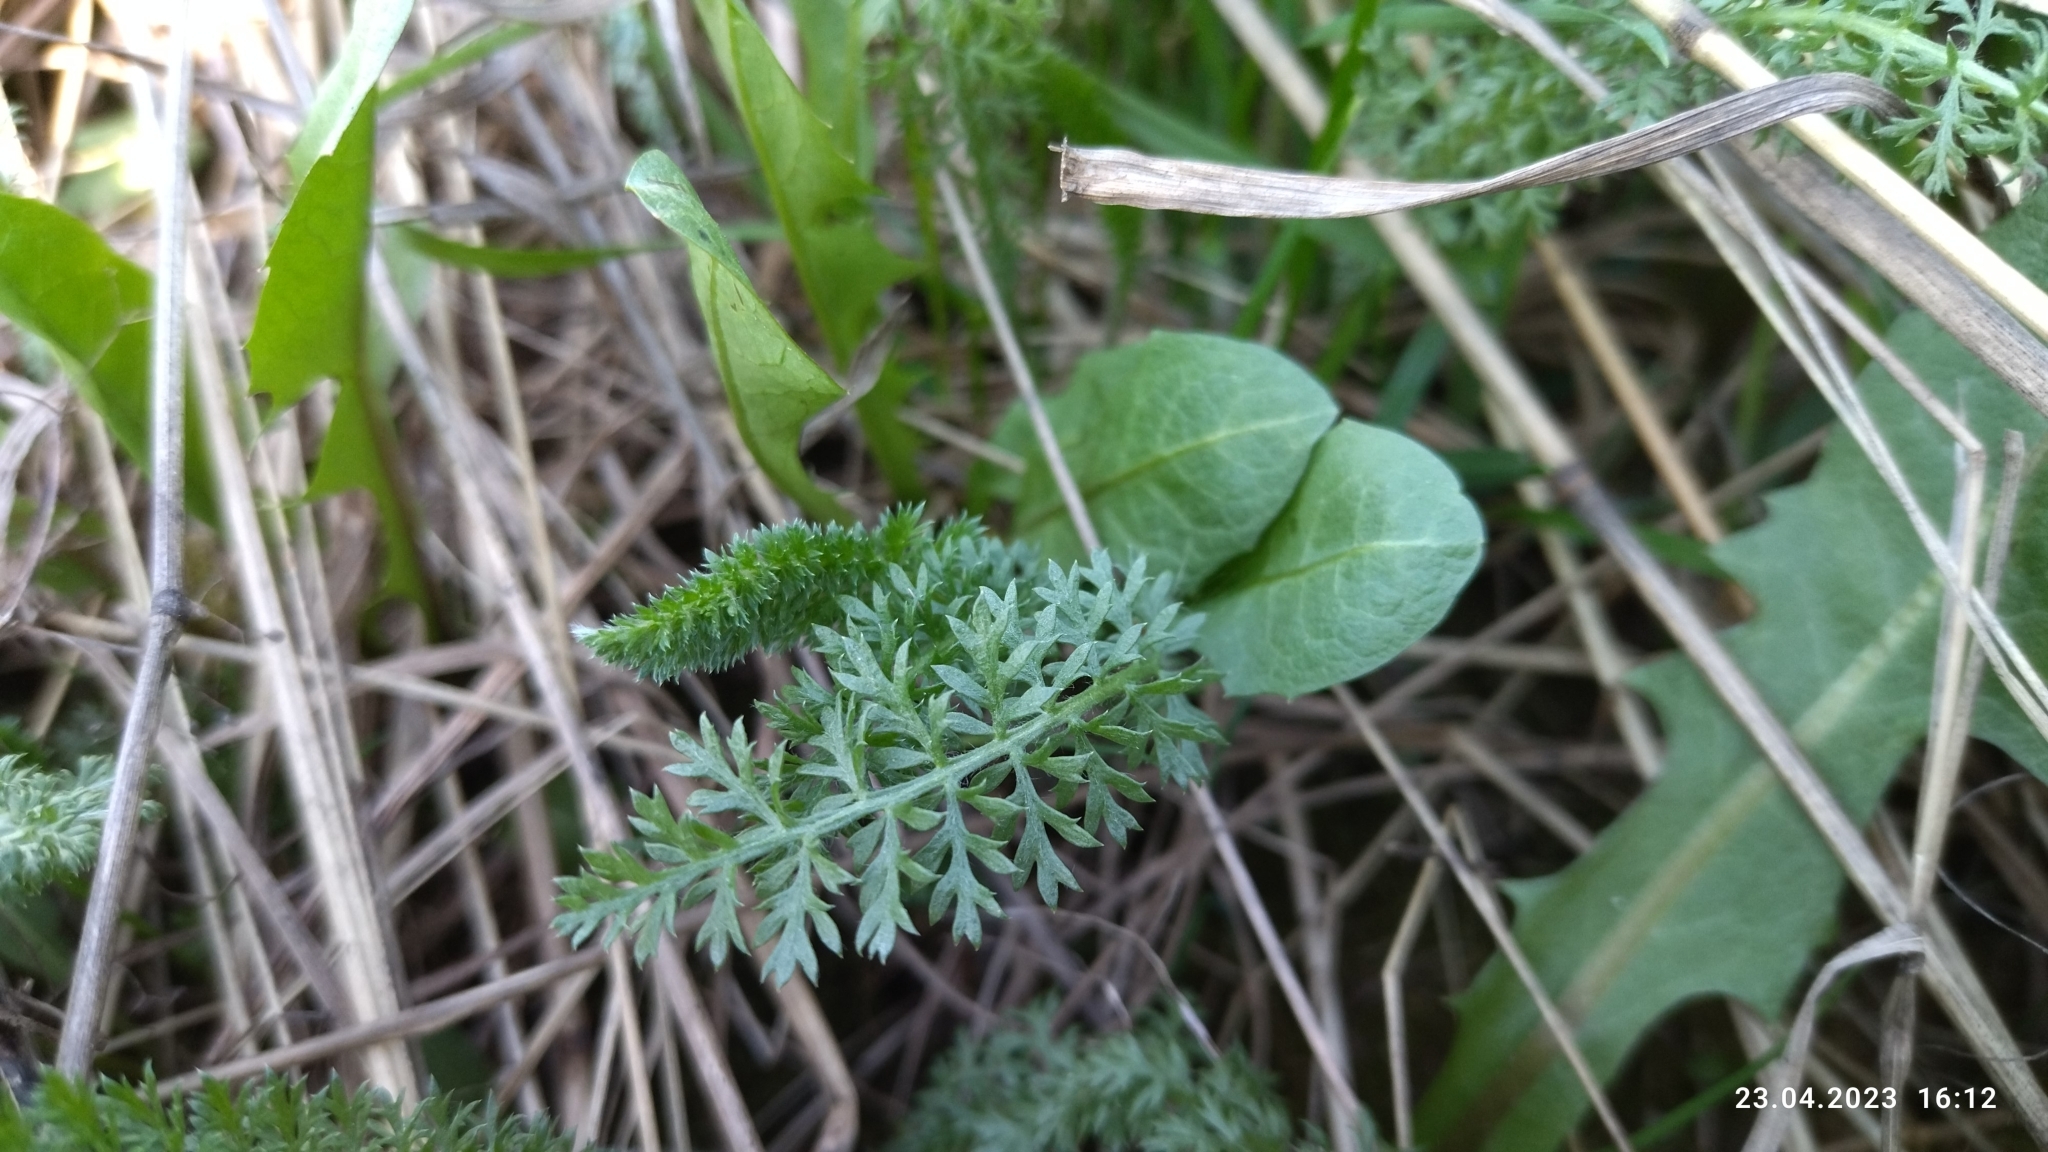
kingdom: Plantae
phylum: Tracheophyta
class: Magnoliopsida
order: Asterales
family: Asteraceae
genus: Achillea
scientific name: Achillea millefolium
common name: Yarrow
